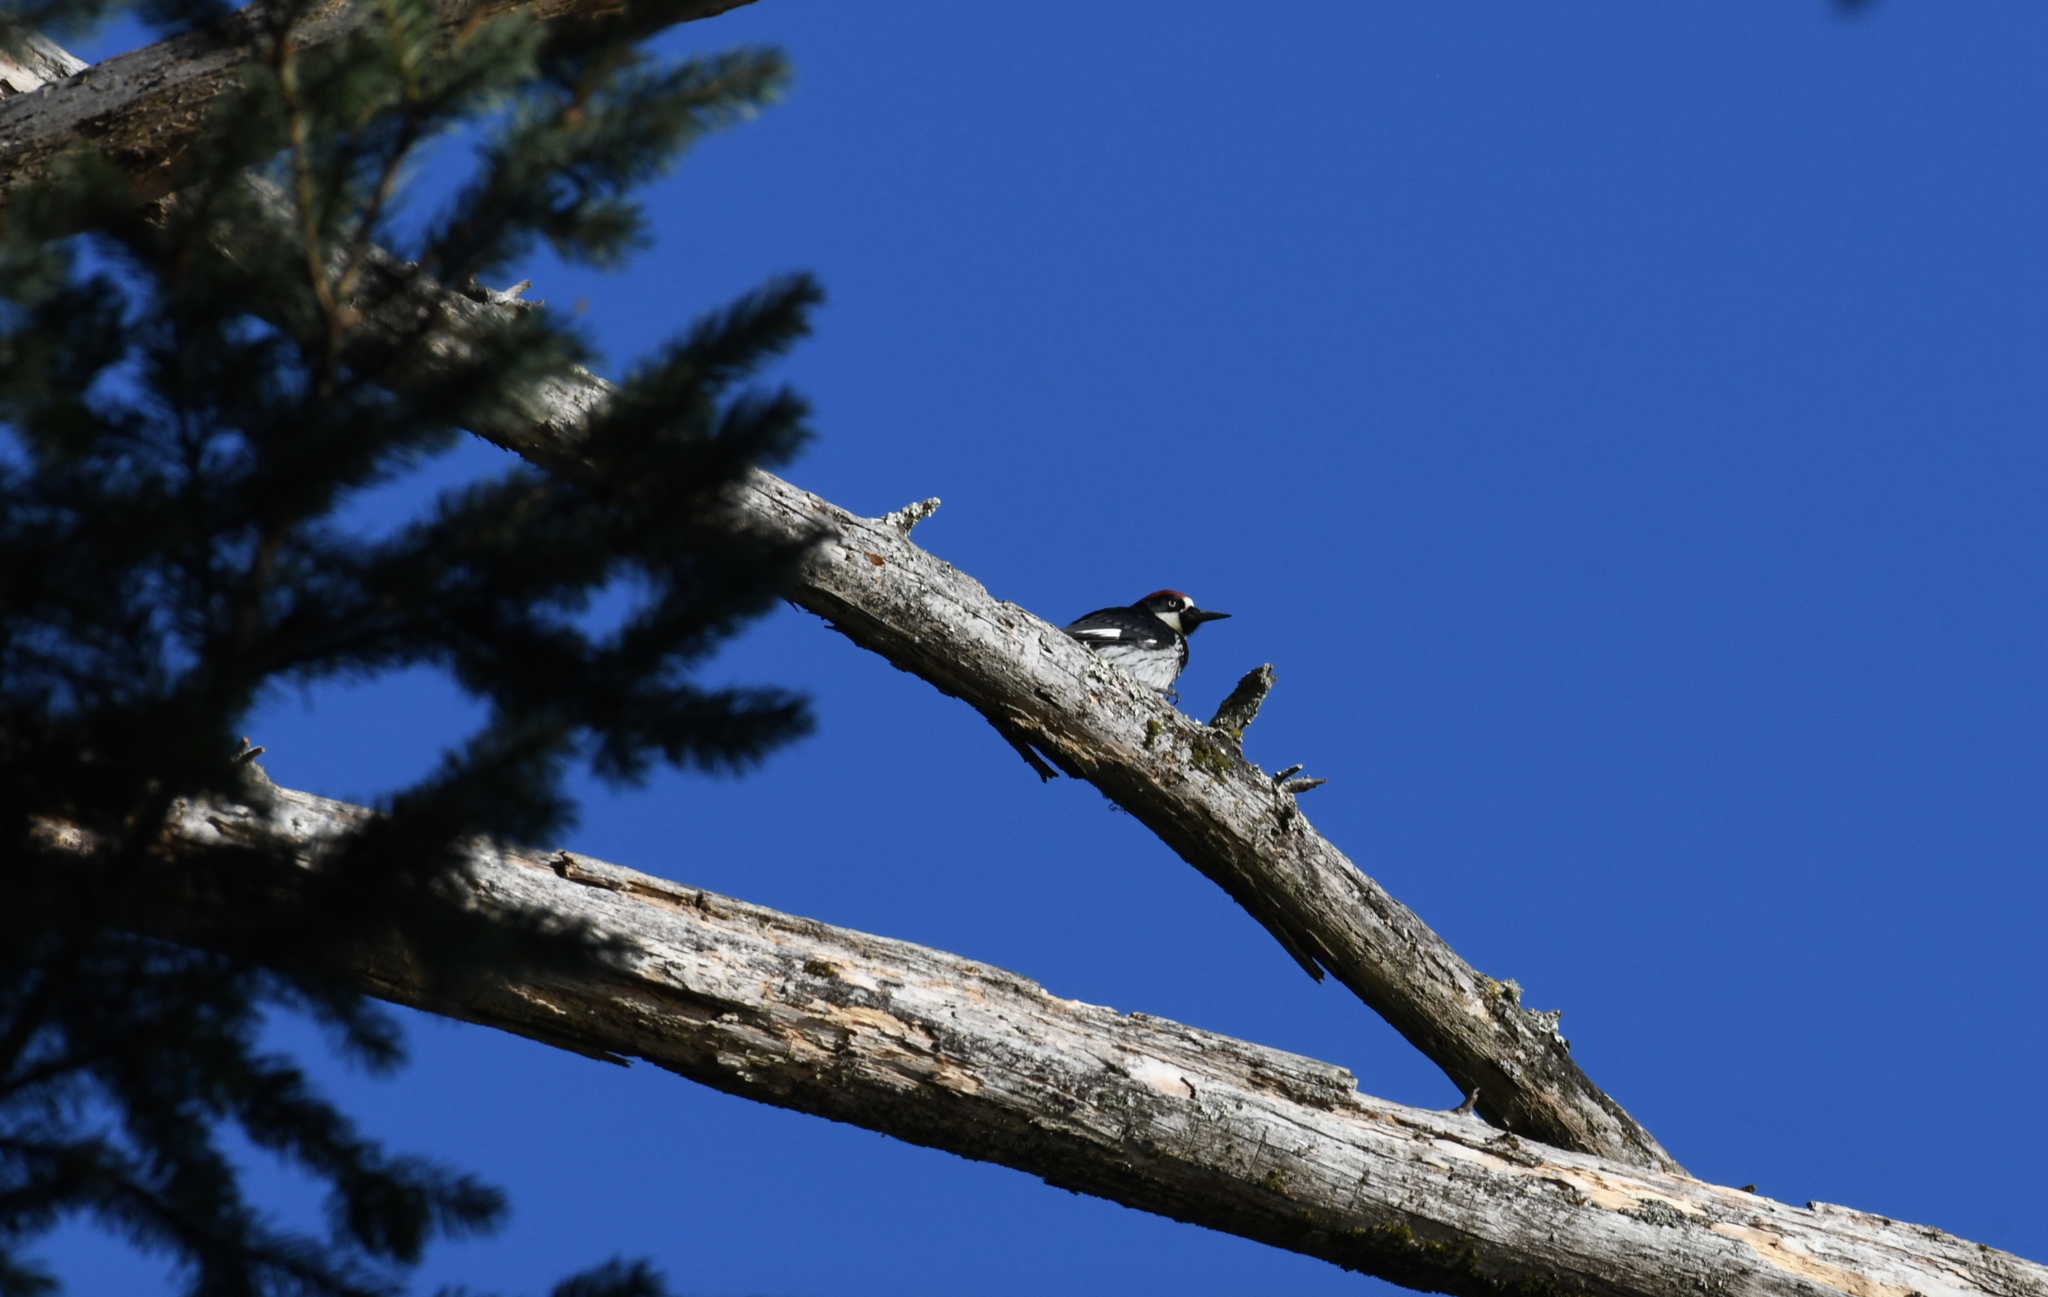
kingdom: Animalia
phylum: Chordata
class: Aves
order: Piciformes
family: Picidae
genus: Melanerpes
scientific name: Melanerpes formicivorus
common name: Acorn woodpecker
